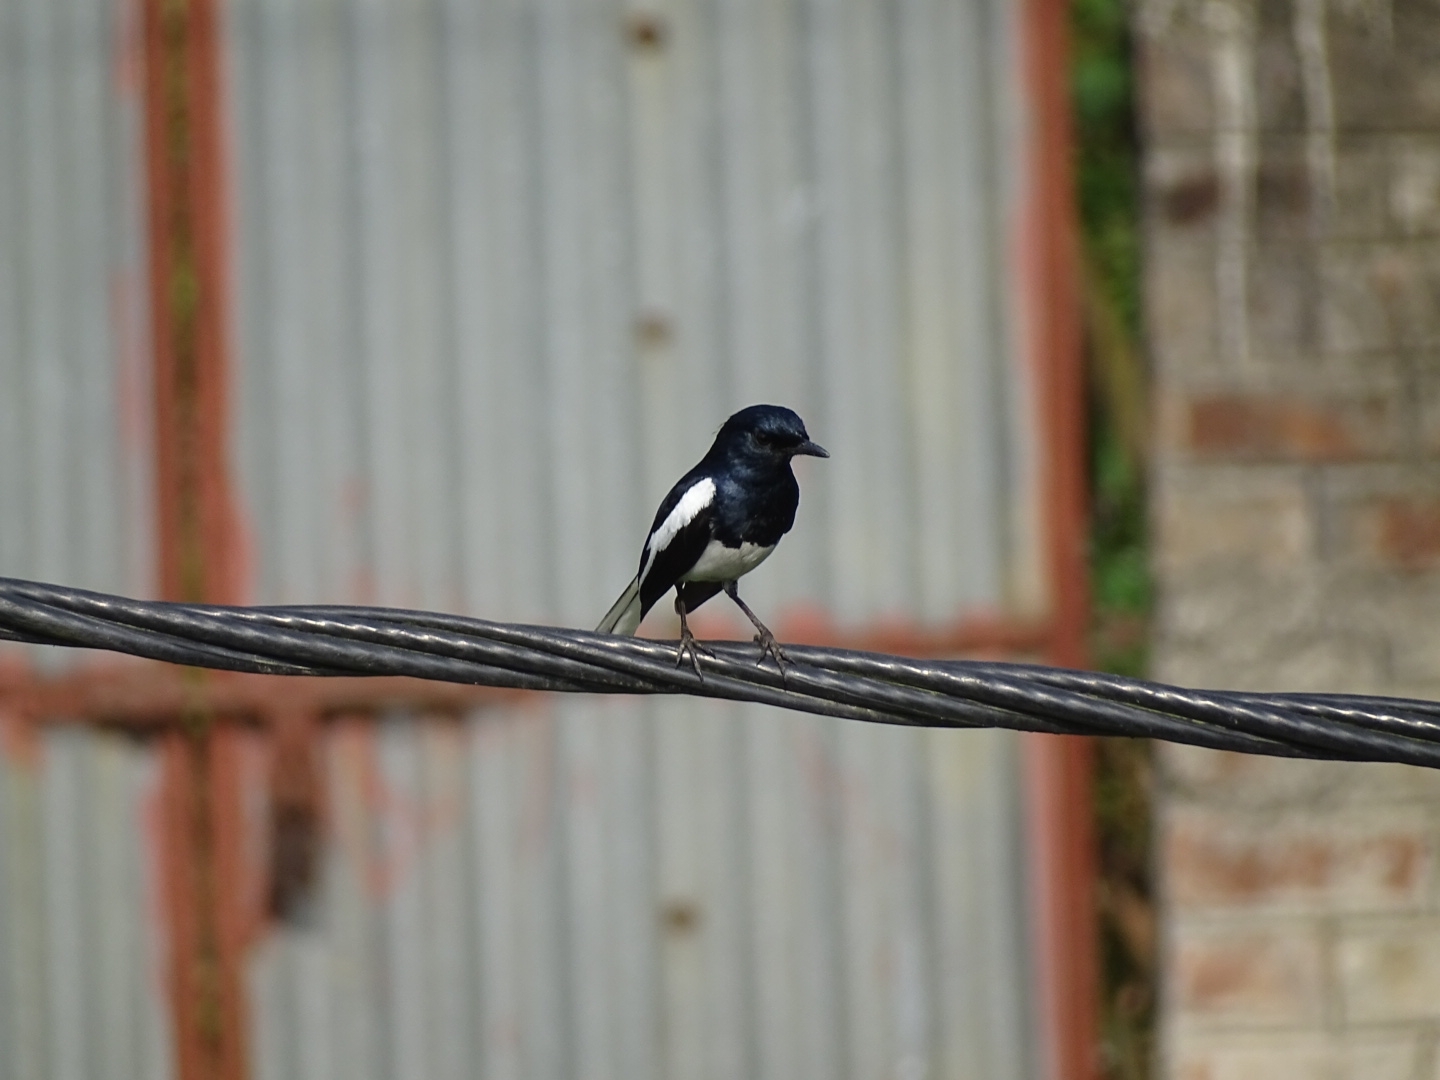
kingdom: Animalia
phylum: Chordata
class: Aves
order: Passeriformes
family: Muscicapidae
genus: Copsychus
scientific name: Copsychus saularis
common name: Oriental magpie-robin
